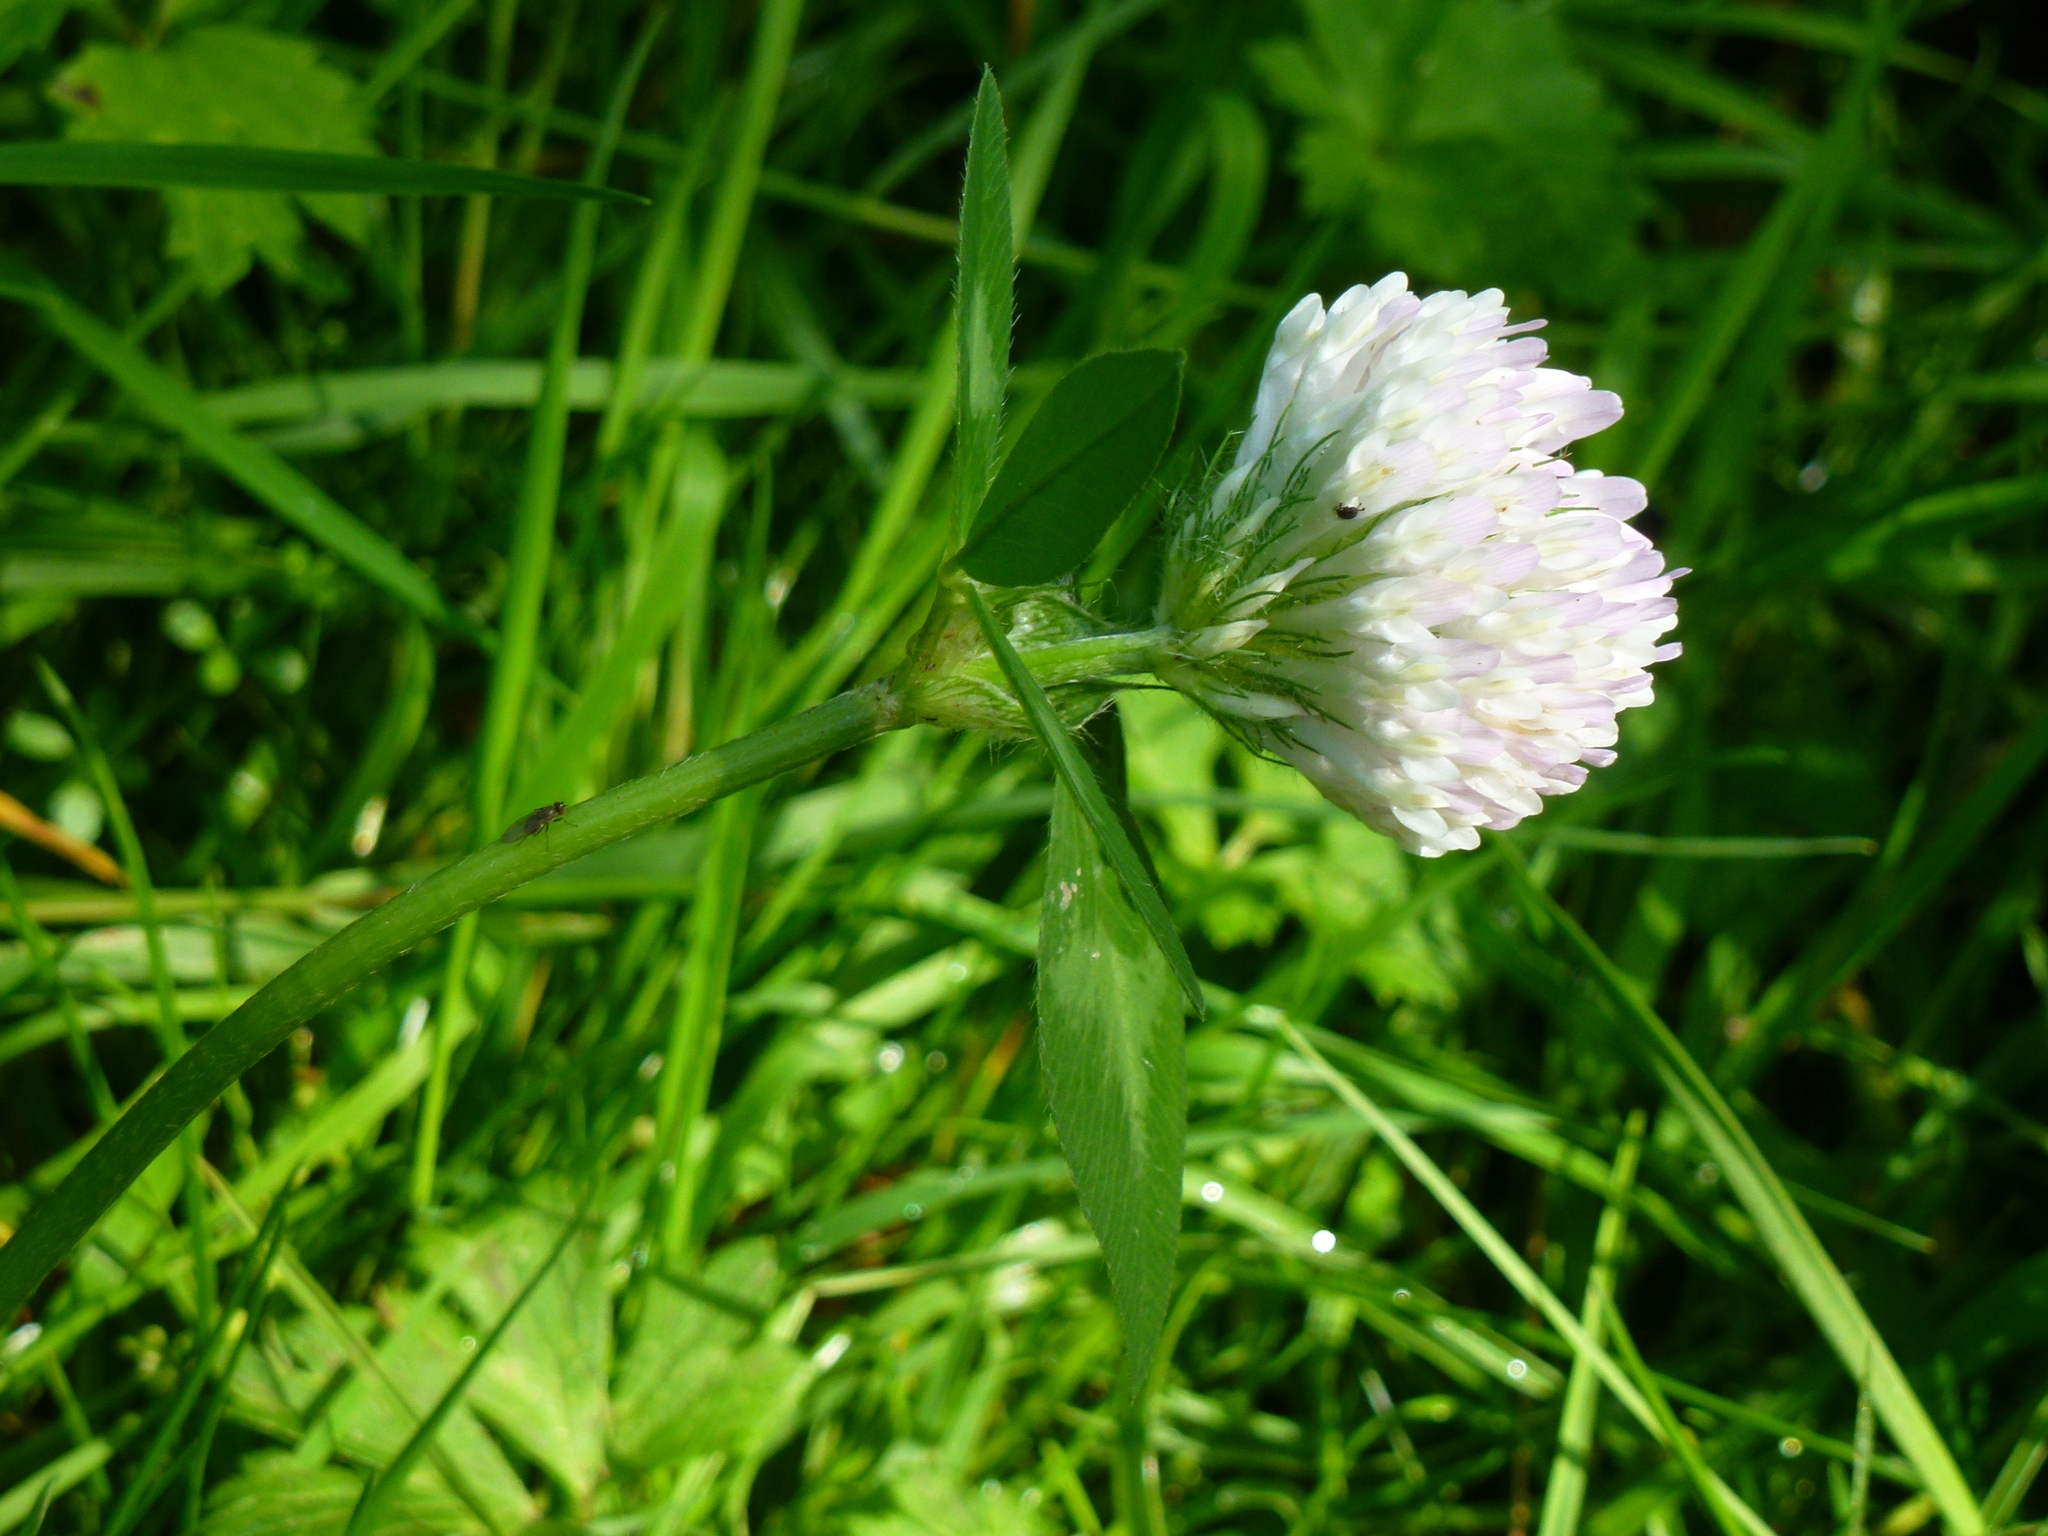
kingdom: Plantae
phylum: Tracheophyta
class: Magnoliopsida
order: Fabales
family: Fabaceae
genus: Trifolium
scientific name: Trifolium pratense
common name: Red clover
